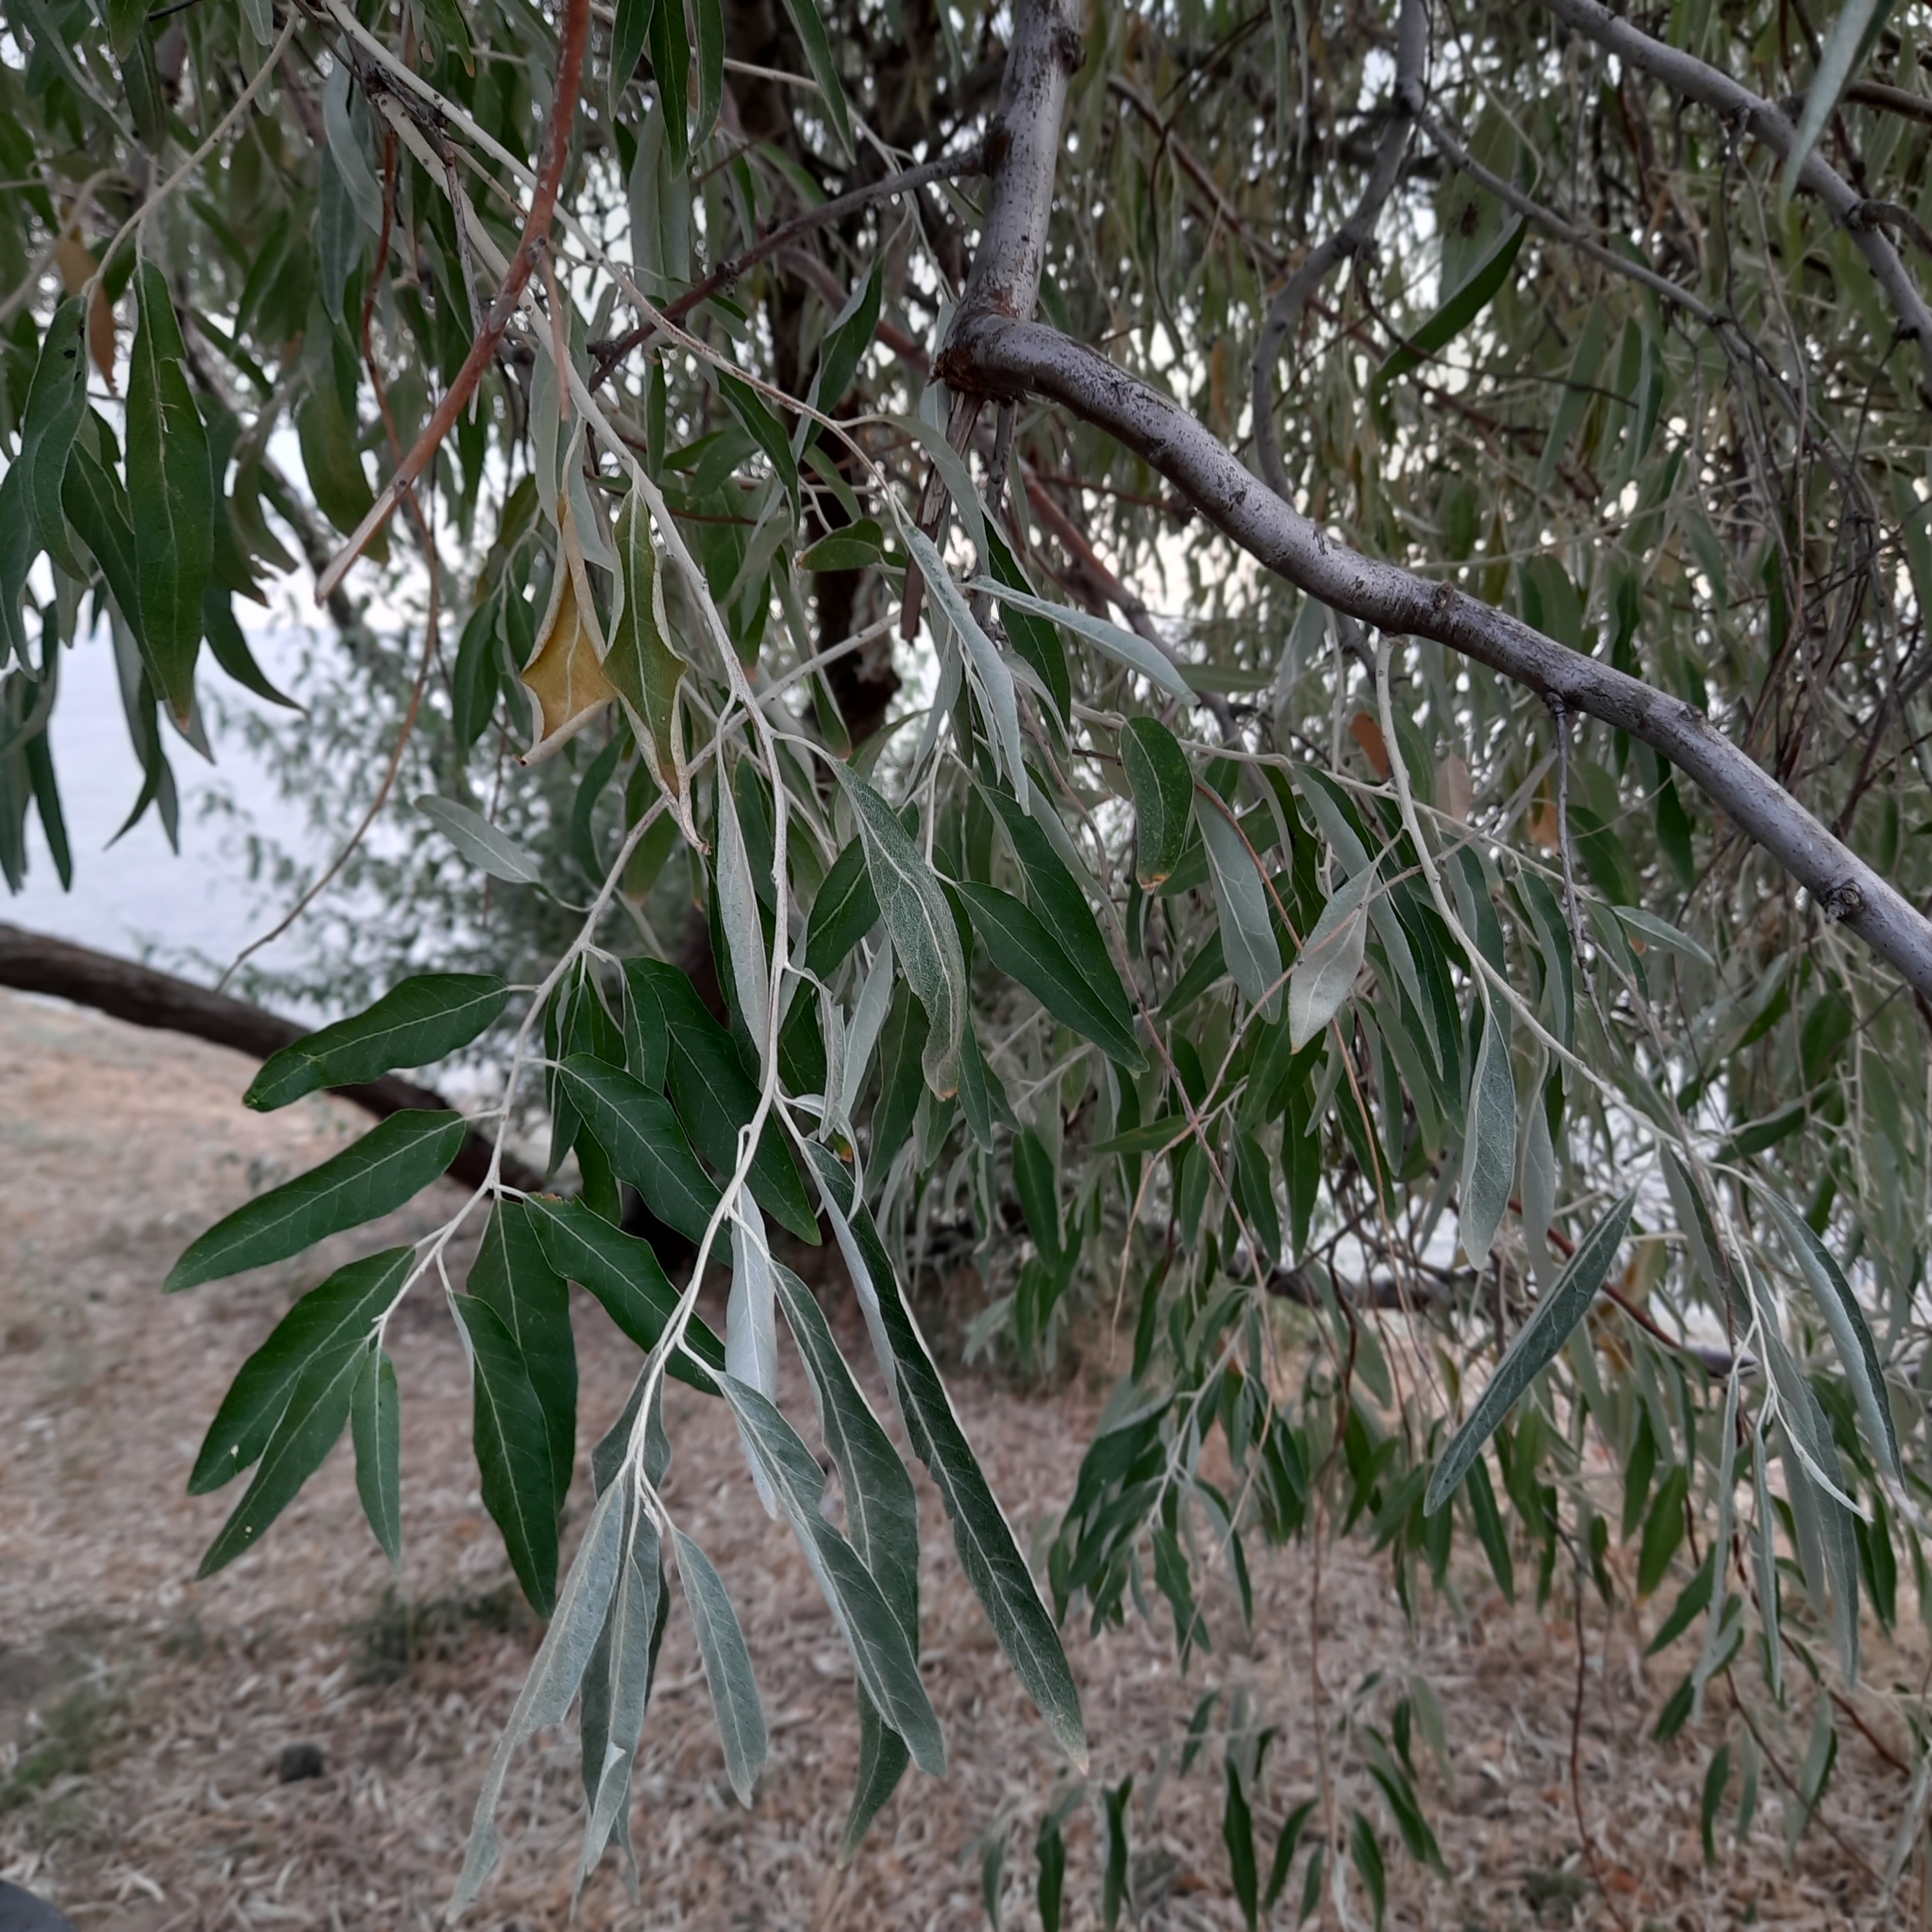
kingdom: Plantae
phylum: Tracheophyta
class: Magnoliopsida
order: Rosales
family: Elaeagnaceae
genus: Elaeagnus
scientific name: Elaeagnus angustifolia
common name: Russian olive
